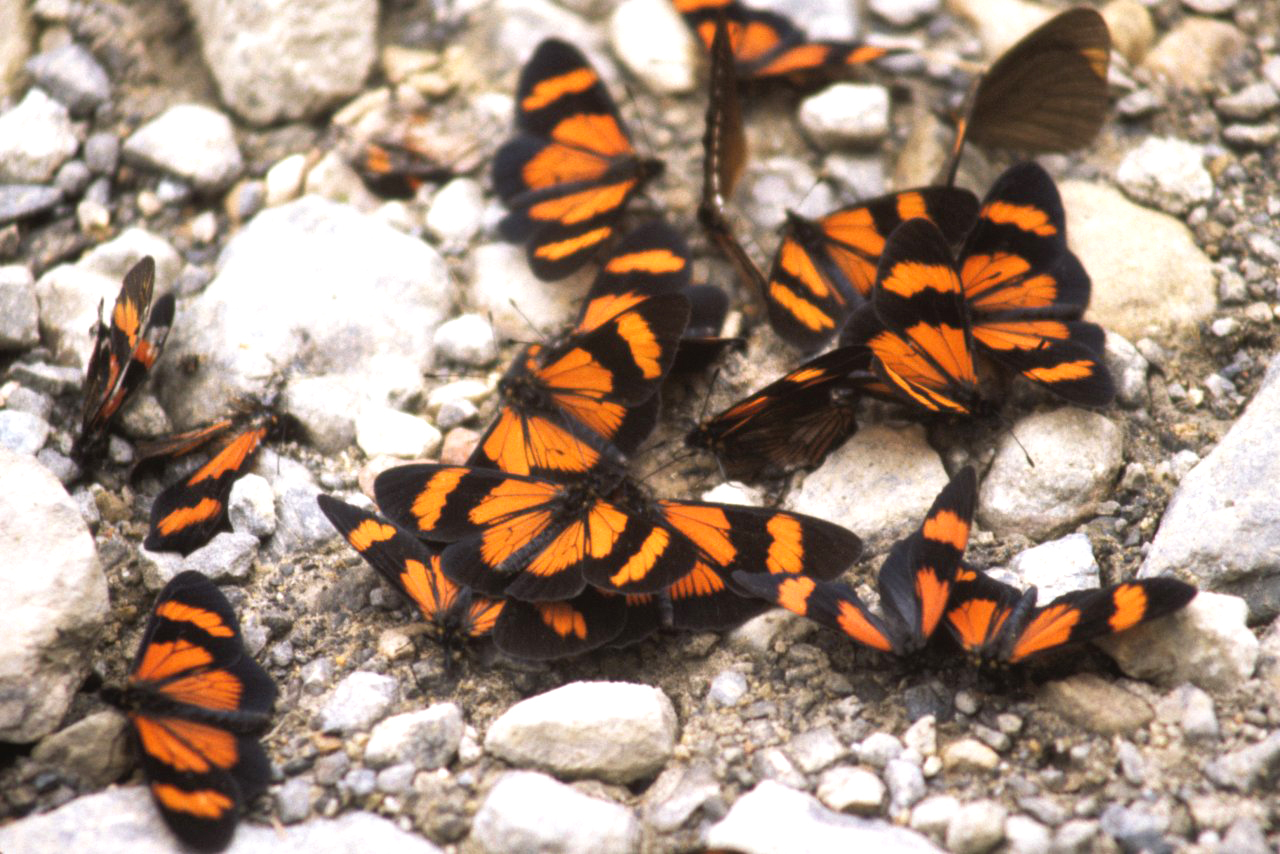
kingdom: Animalia
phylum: Arthropoda
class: Insecta
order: Lepidoptera
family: Nymphalidae
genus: Actinote
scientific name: Actinote negra
